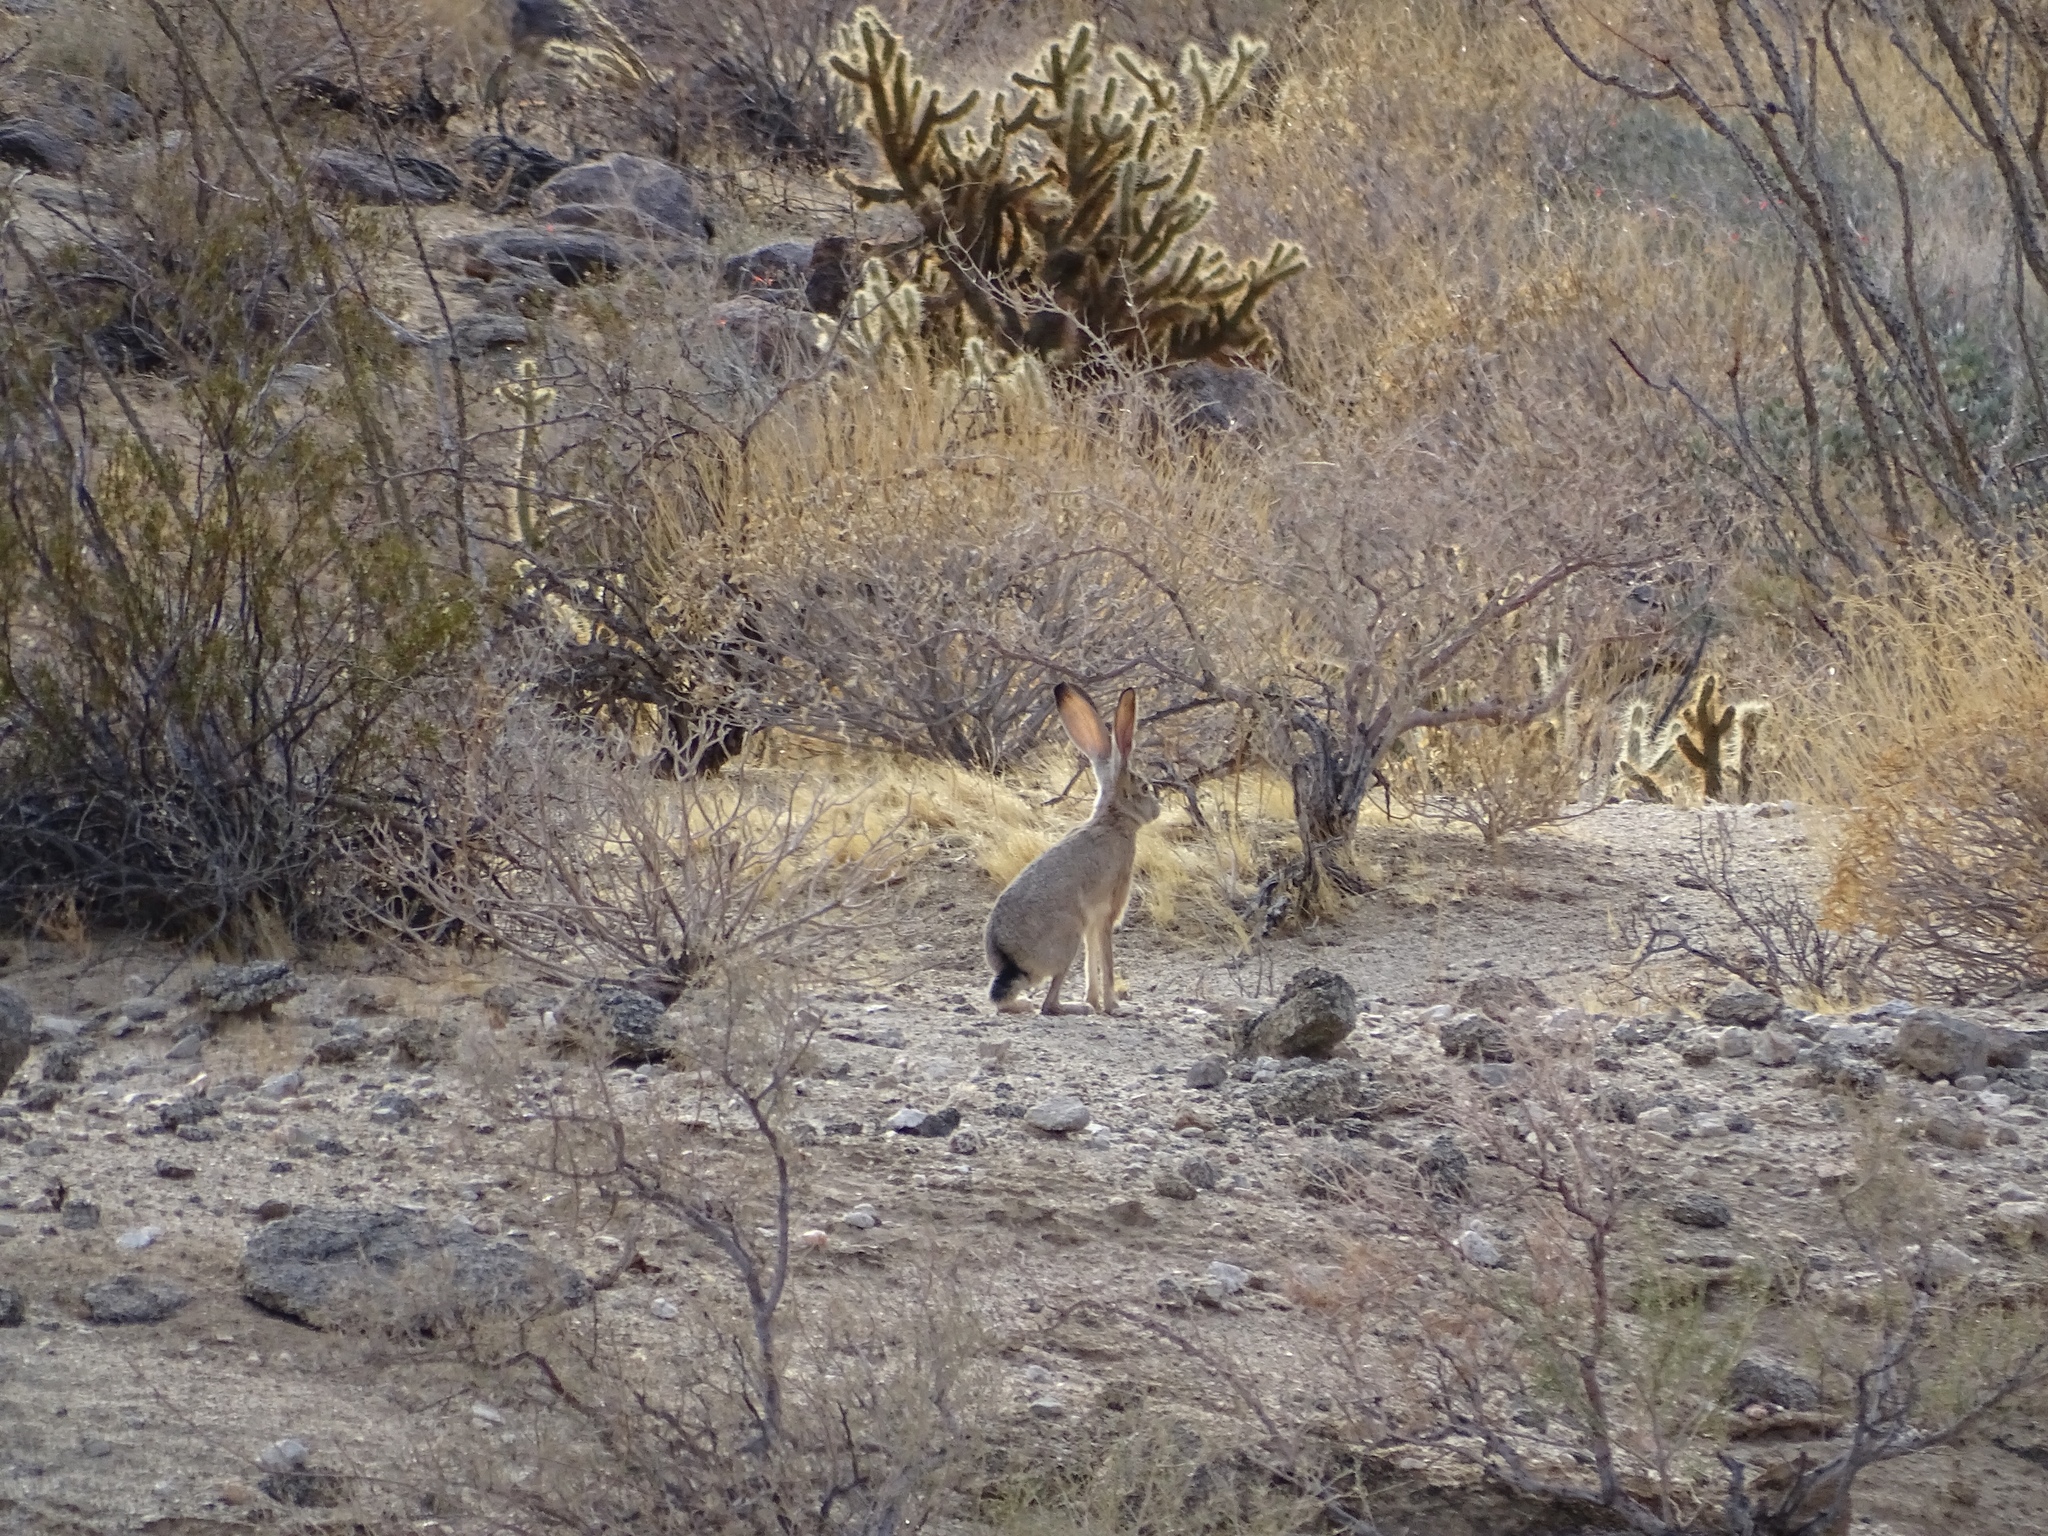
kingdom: Animalia
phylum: Chordata
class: Mammalia
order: Lagomorpha
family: Leporidae
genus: Lepus
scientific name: Lepus californicus
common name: Black-tailed jackrabbit
